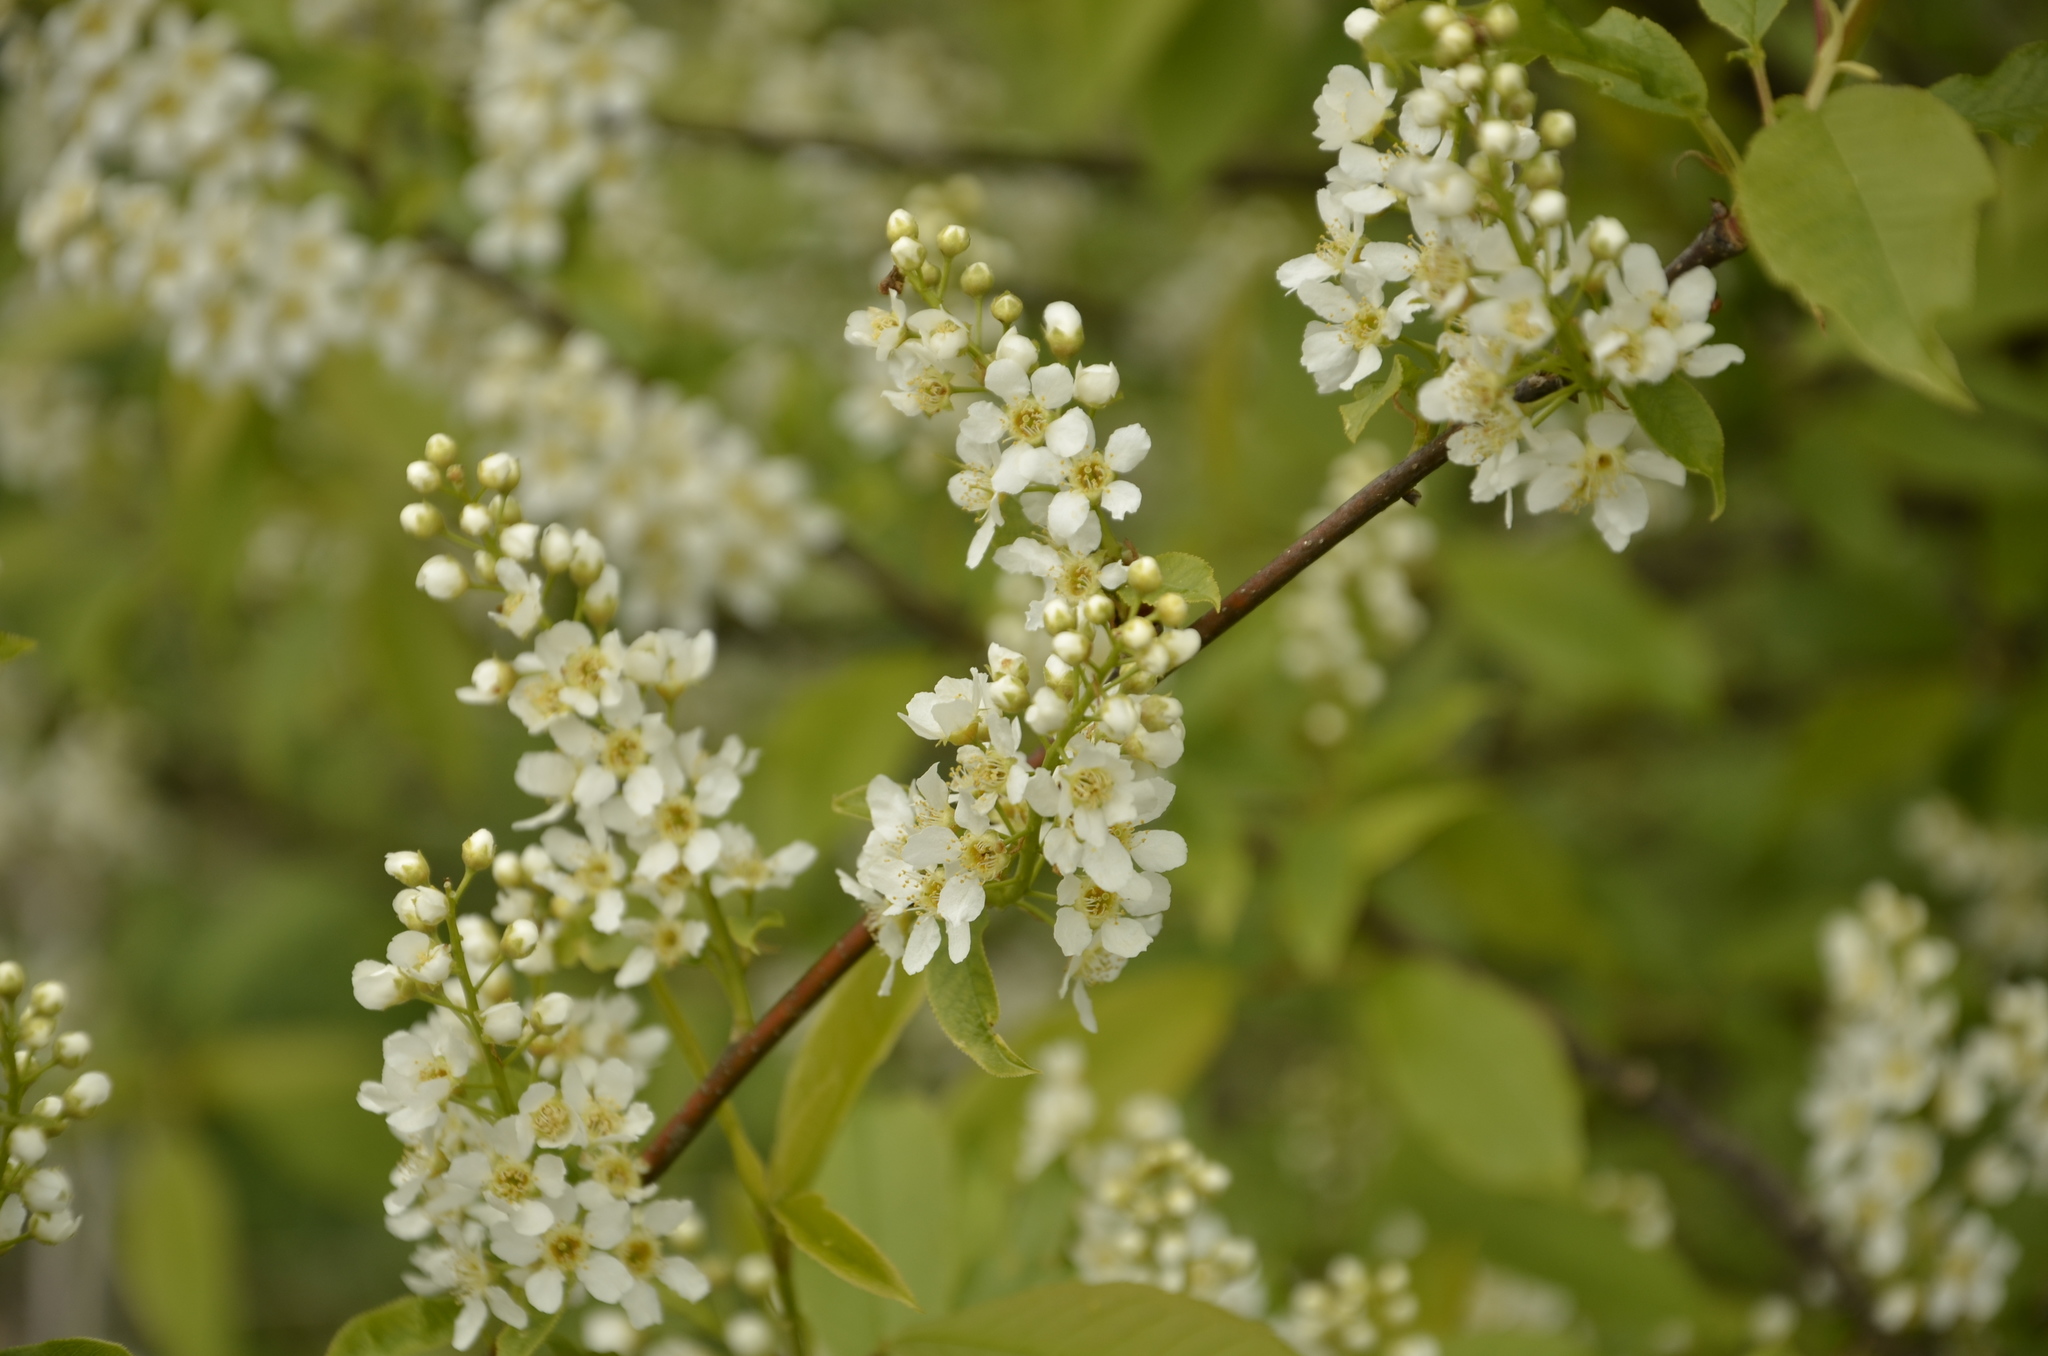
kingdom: Plantae
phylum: Tracheophyta
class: Magnoliopsida
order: Rosales
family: Rosaceae
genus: Prunus
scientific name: Prunus padus
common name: Bird cherry
